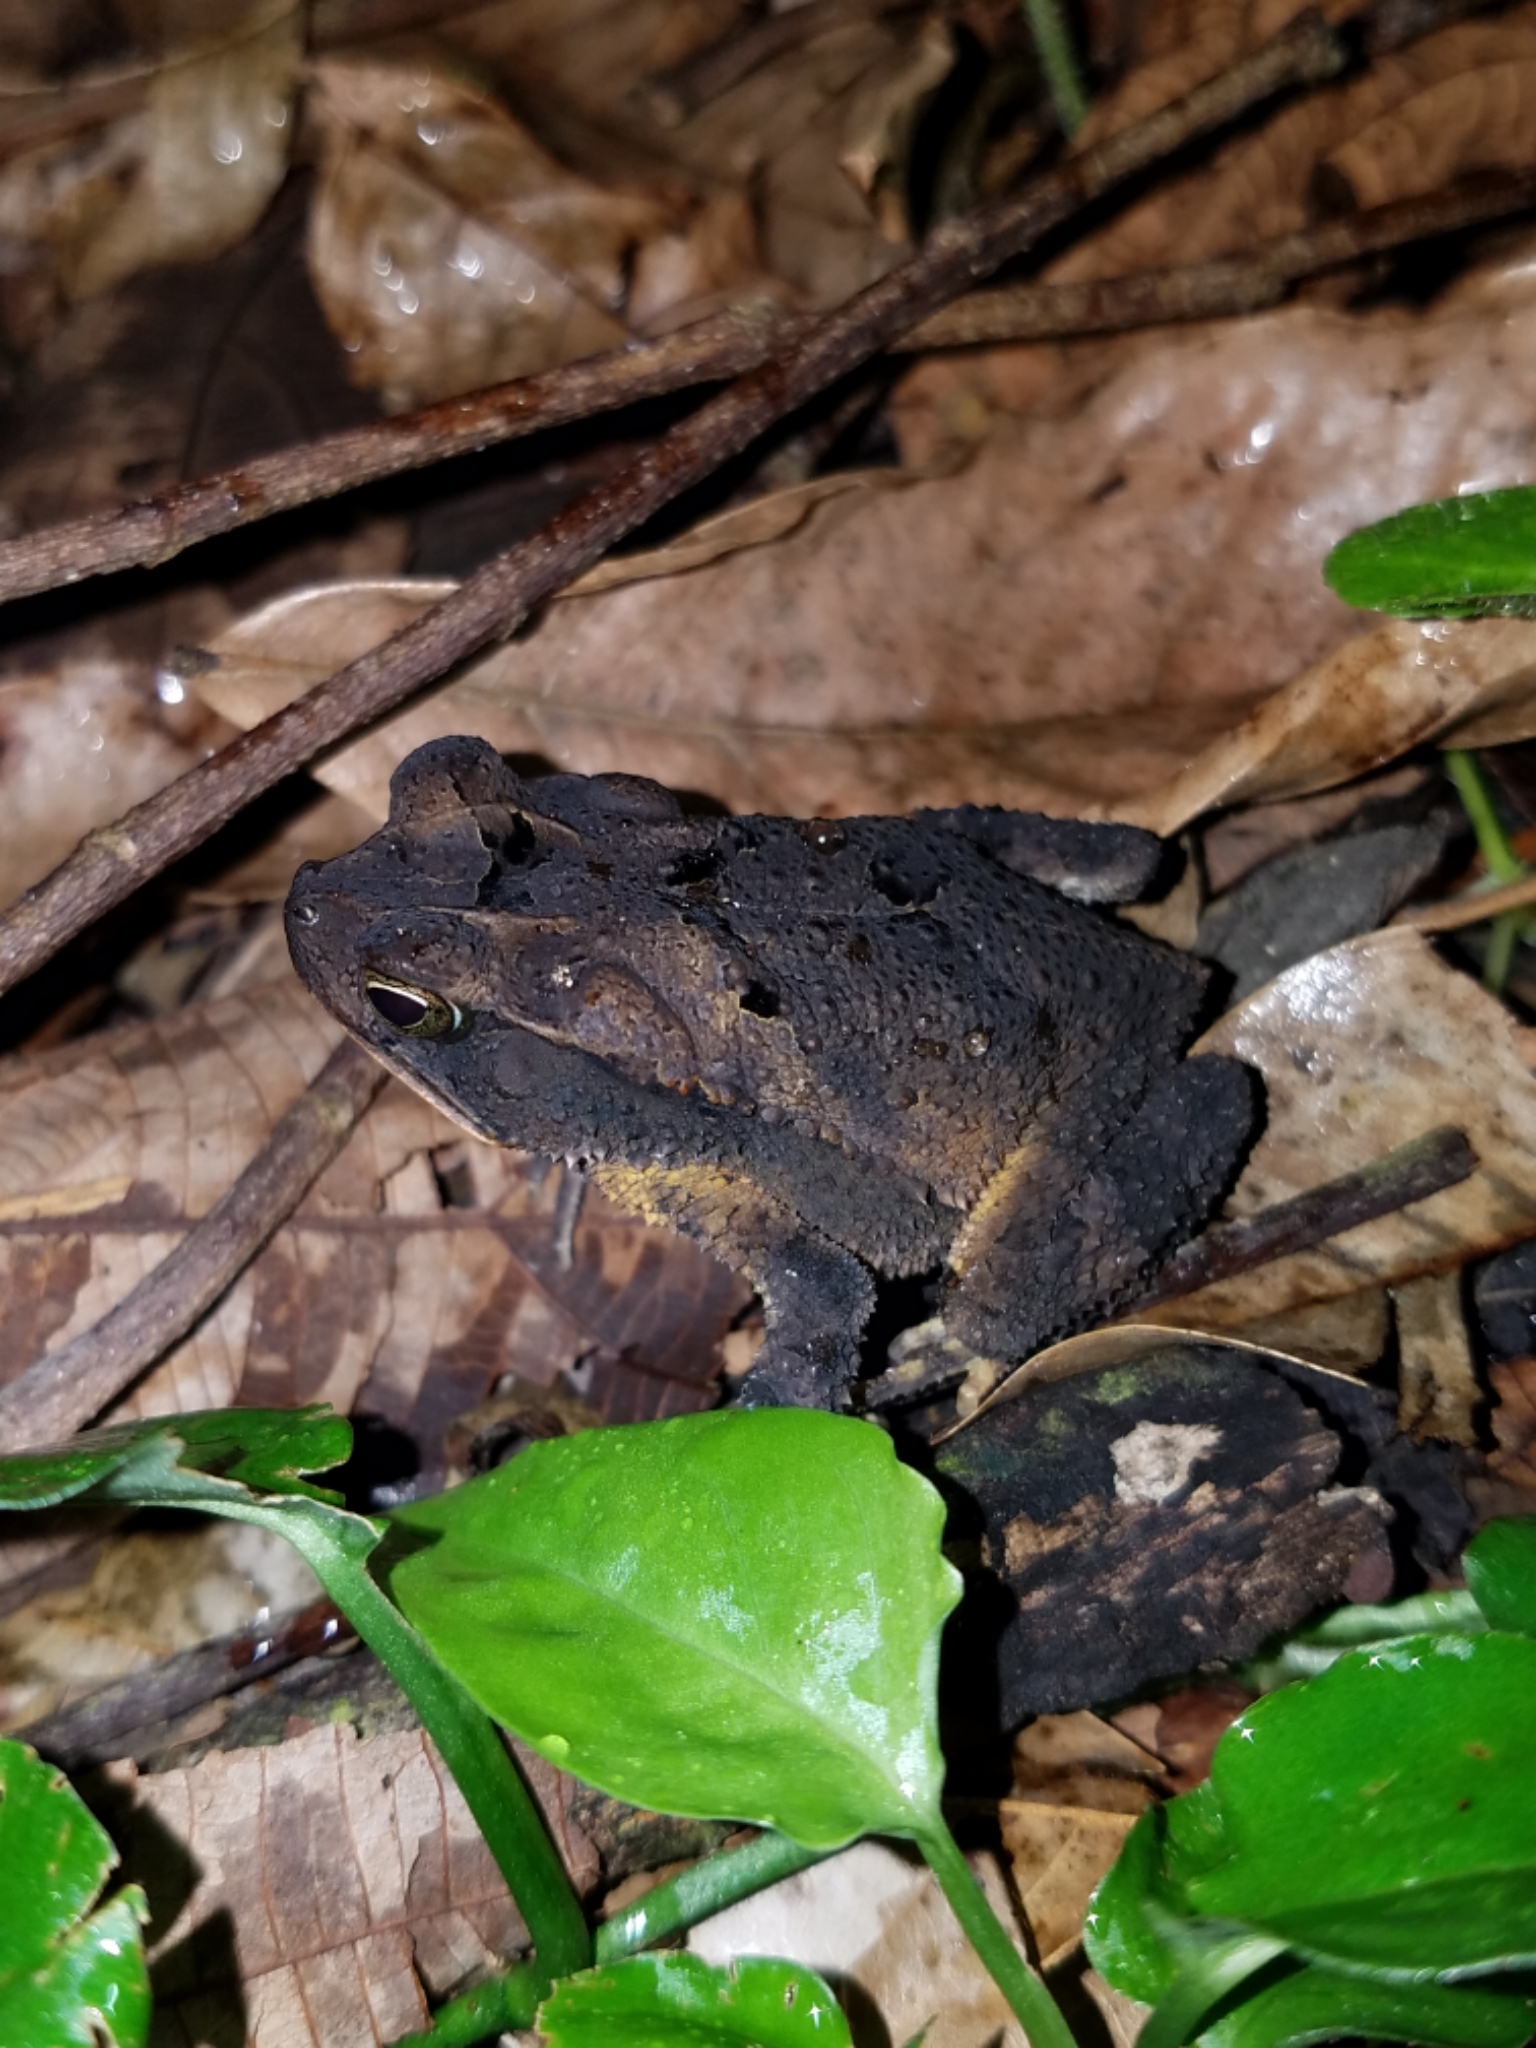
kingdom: Animalia
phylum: Chordata
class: Amphibia
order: Anura
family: Bufonidae
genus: Incilius
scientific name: Incilius melanochlorus
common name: Dark green toad
